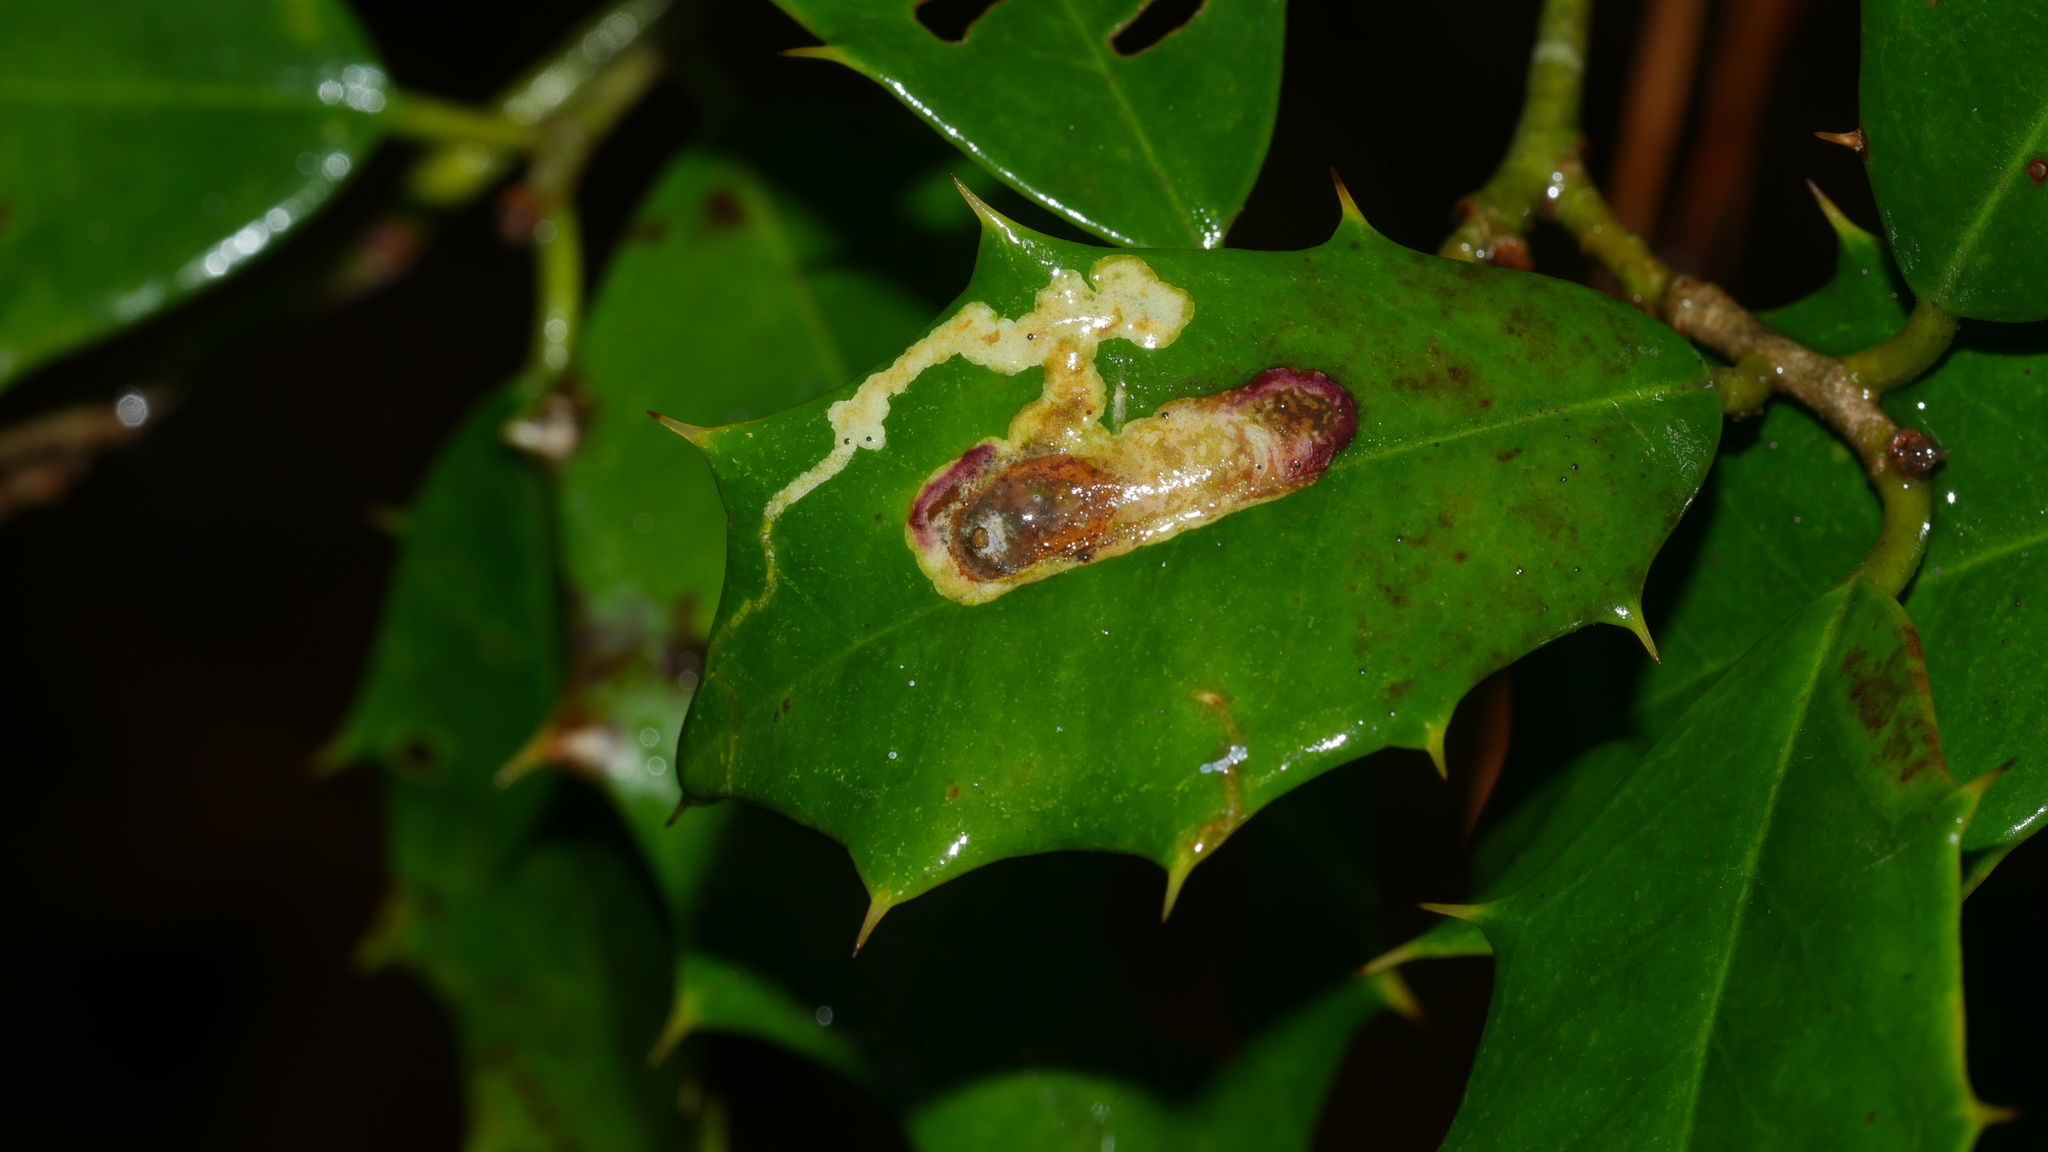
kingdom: Animalia
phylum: Arthropoda
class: Insecta
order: Diptera
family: Agromyzidae
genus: Phytomyza
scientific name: Phytomyza ilicicola
